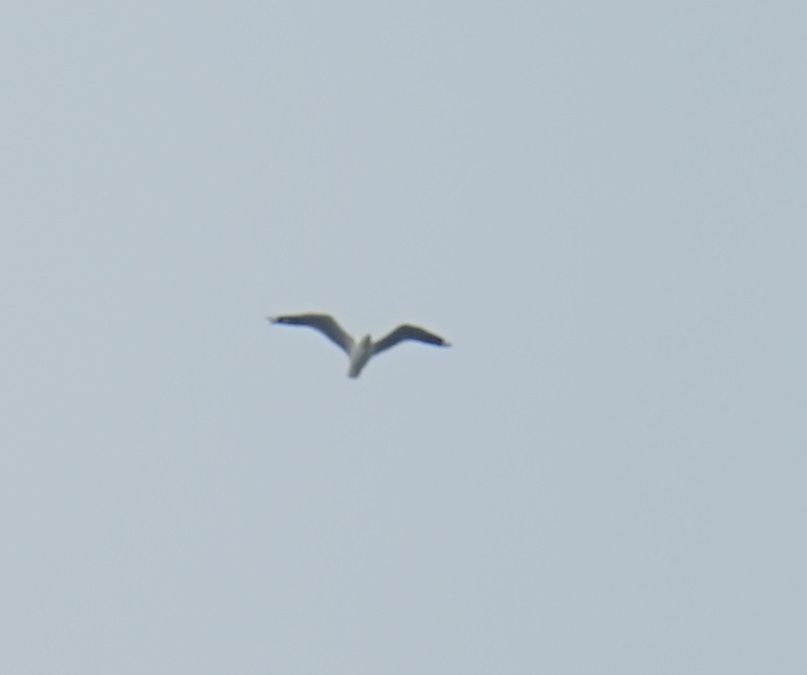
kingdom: Animalia
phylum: Chordata
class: Aves
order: Charadriiformes
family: Laridae
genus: Chroicocephalus
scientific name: Chroicocephalus novaehollandiae
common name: Silver gull
